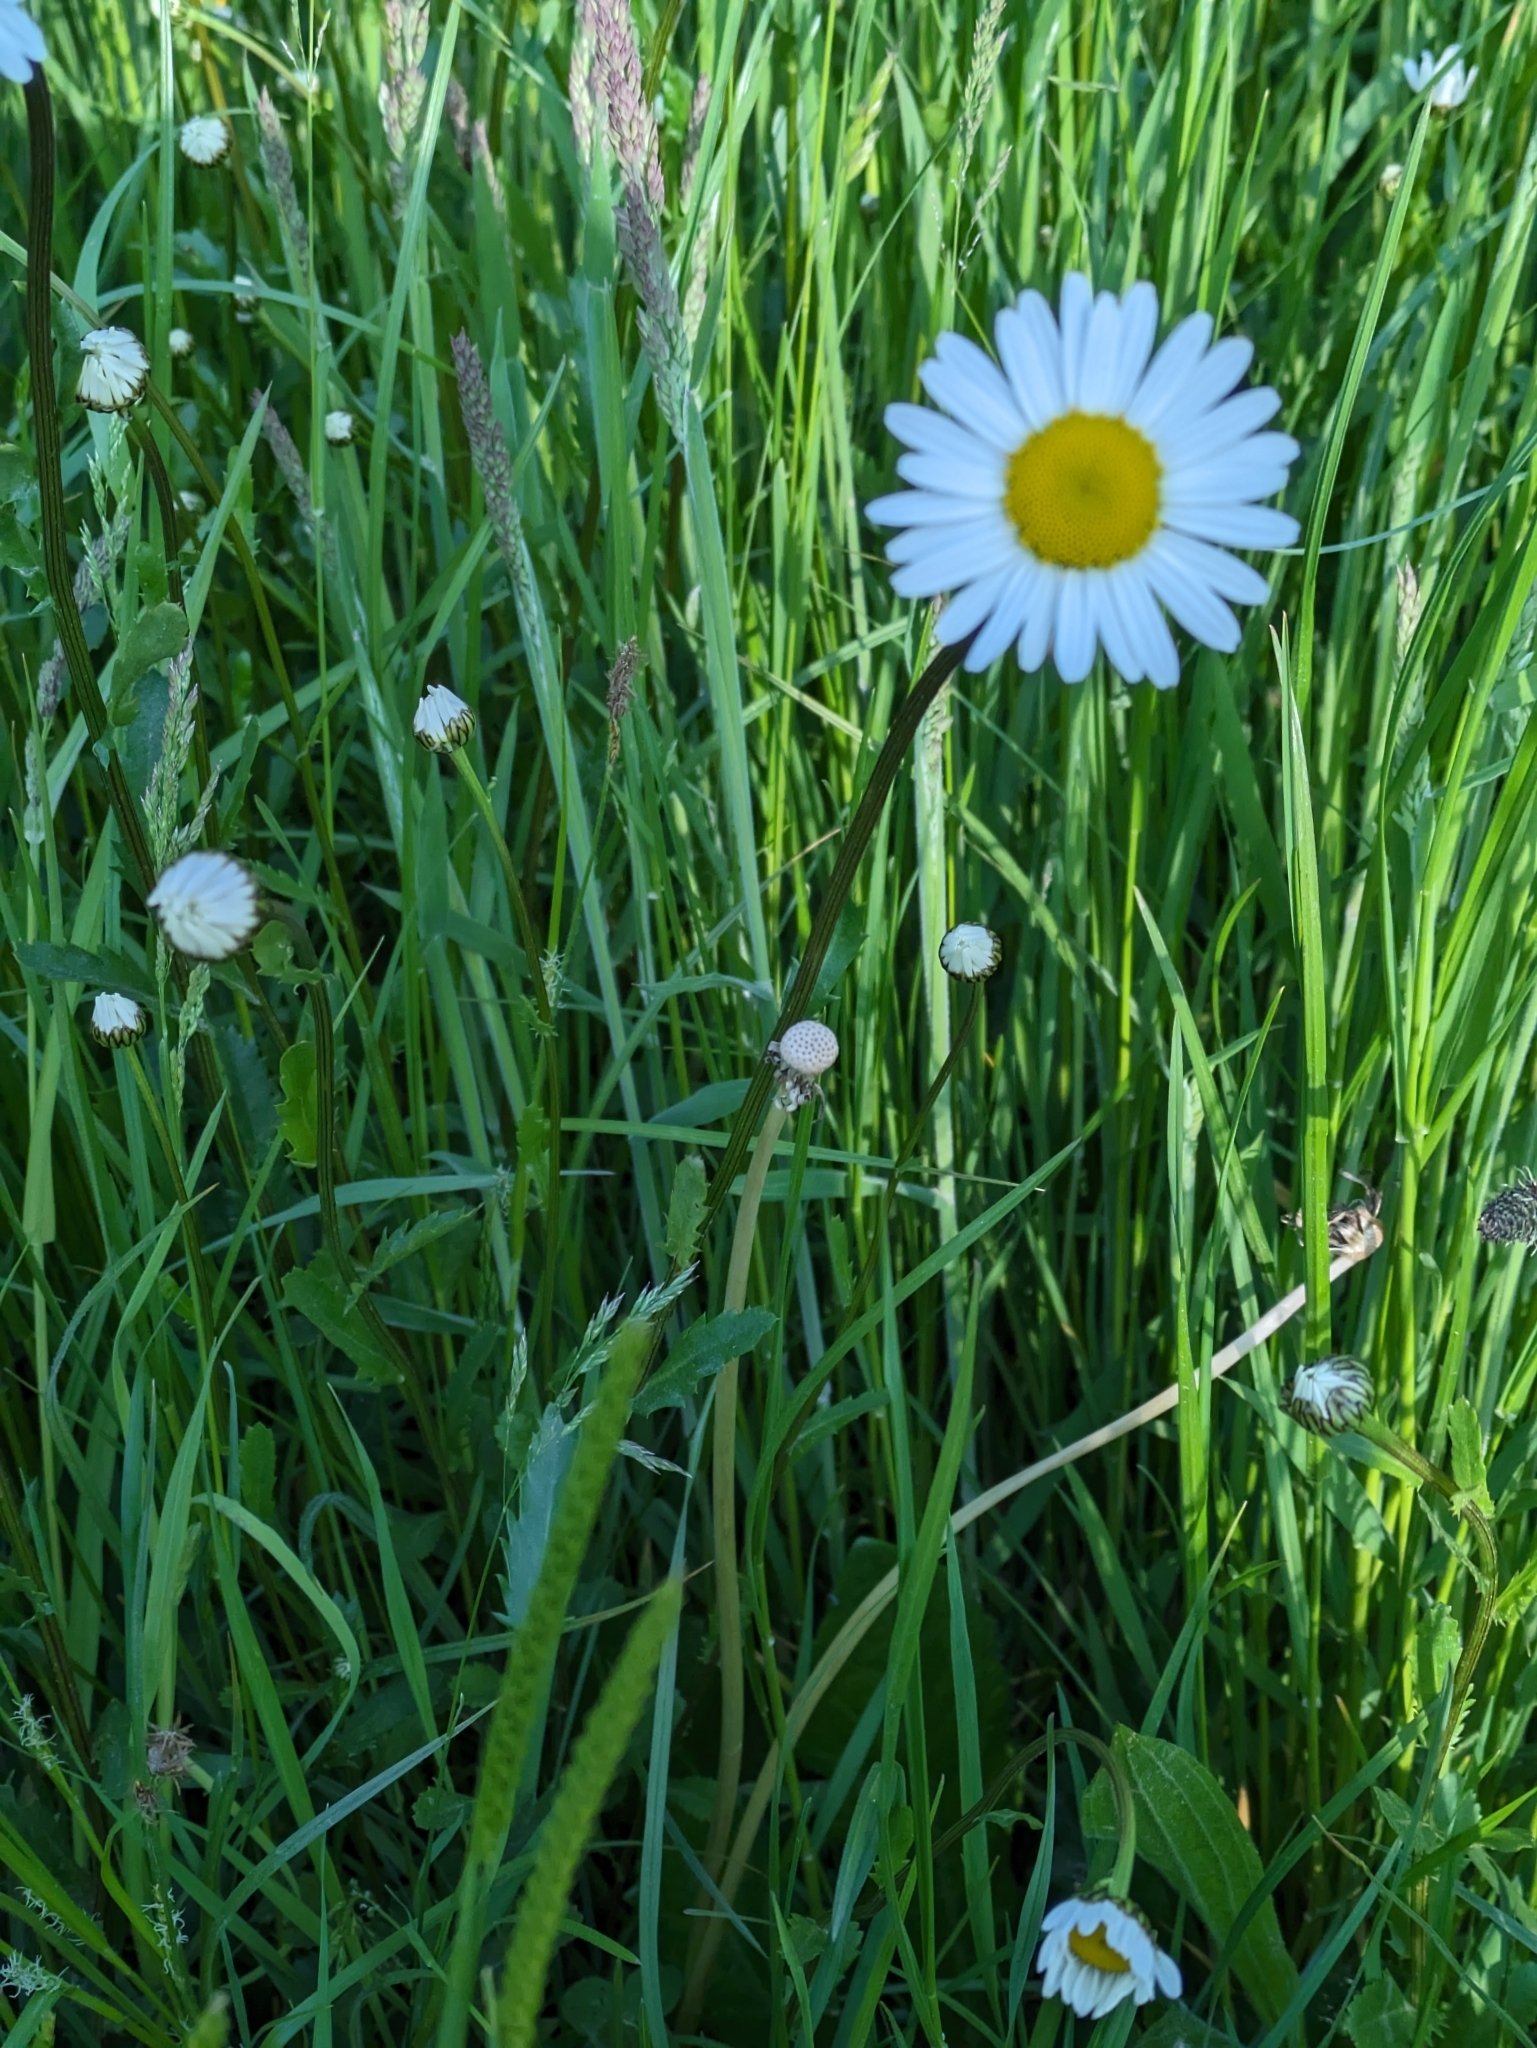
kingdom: Plantae
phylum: Tracheophyta
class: Magnoliopsida
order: Asterales
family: Asteraceae
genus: Leucanthemum
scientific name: Leucanthemum vulgare
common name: Oxeye daisy
